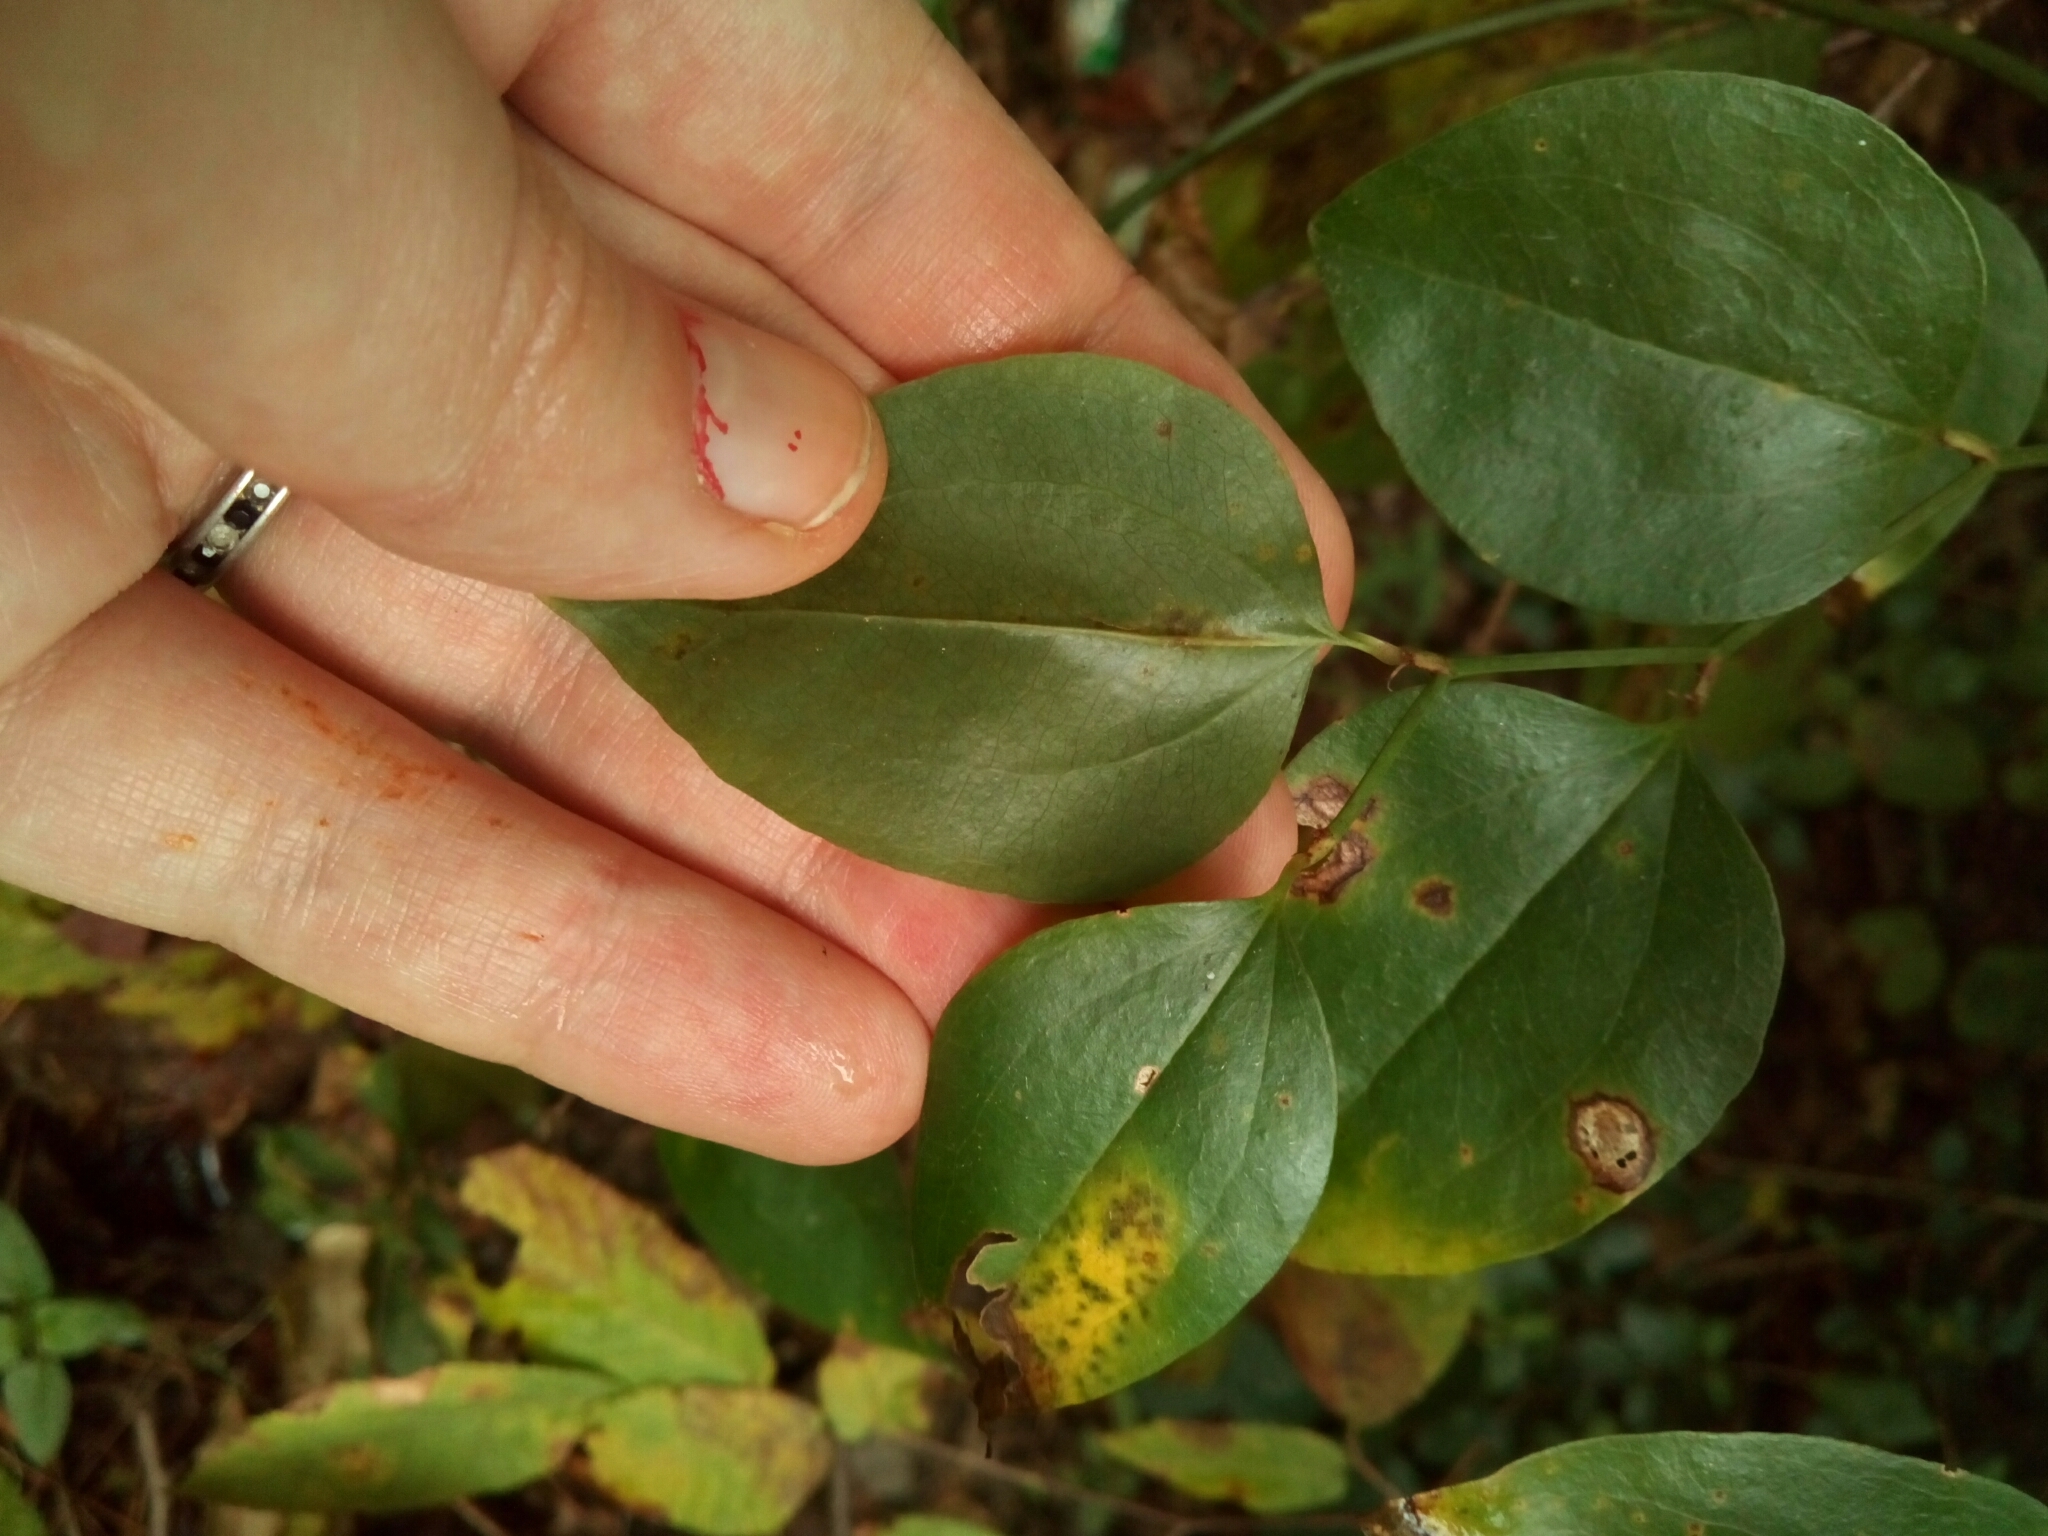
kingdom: Plantae
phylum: Tracheophyta
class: Liliopsida
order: Liliales
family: Smilacaceae
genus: Smilax
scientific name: Smilax rotundifolia
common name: Bullbriar
